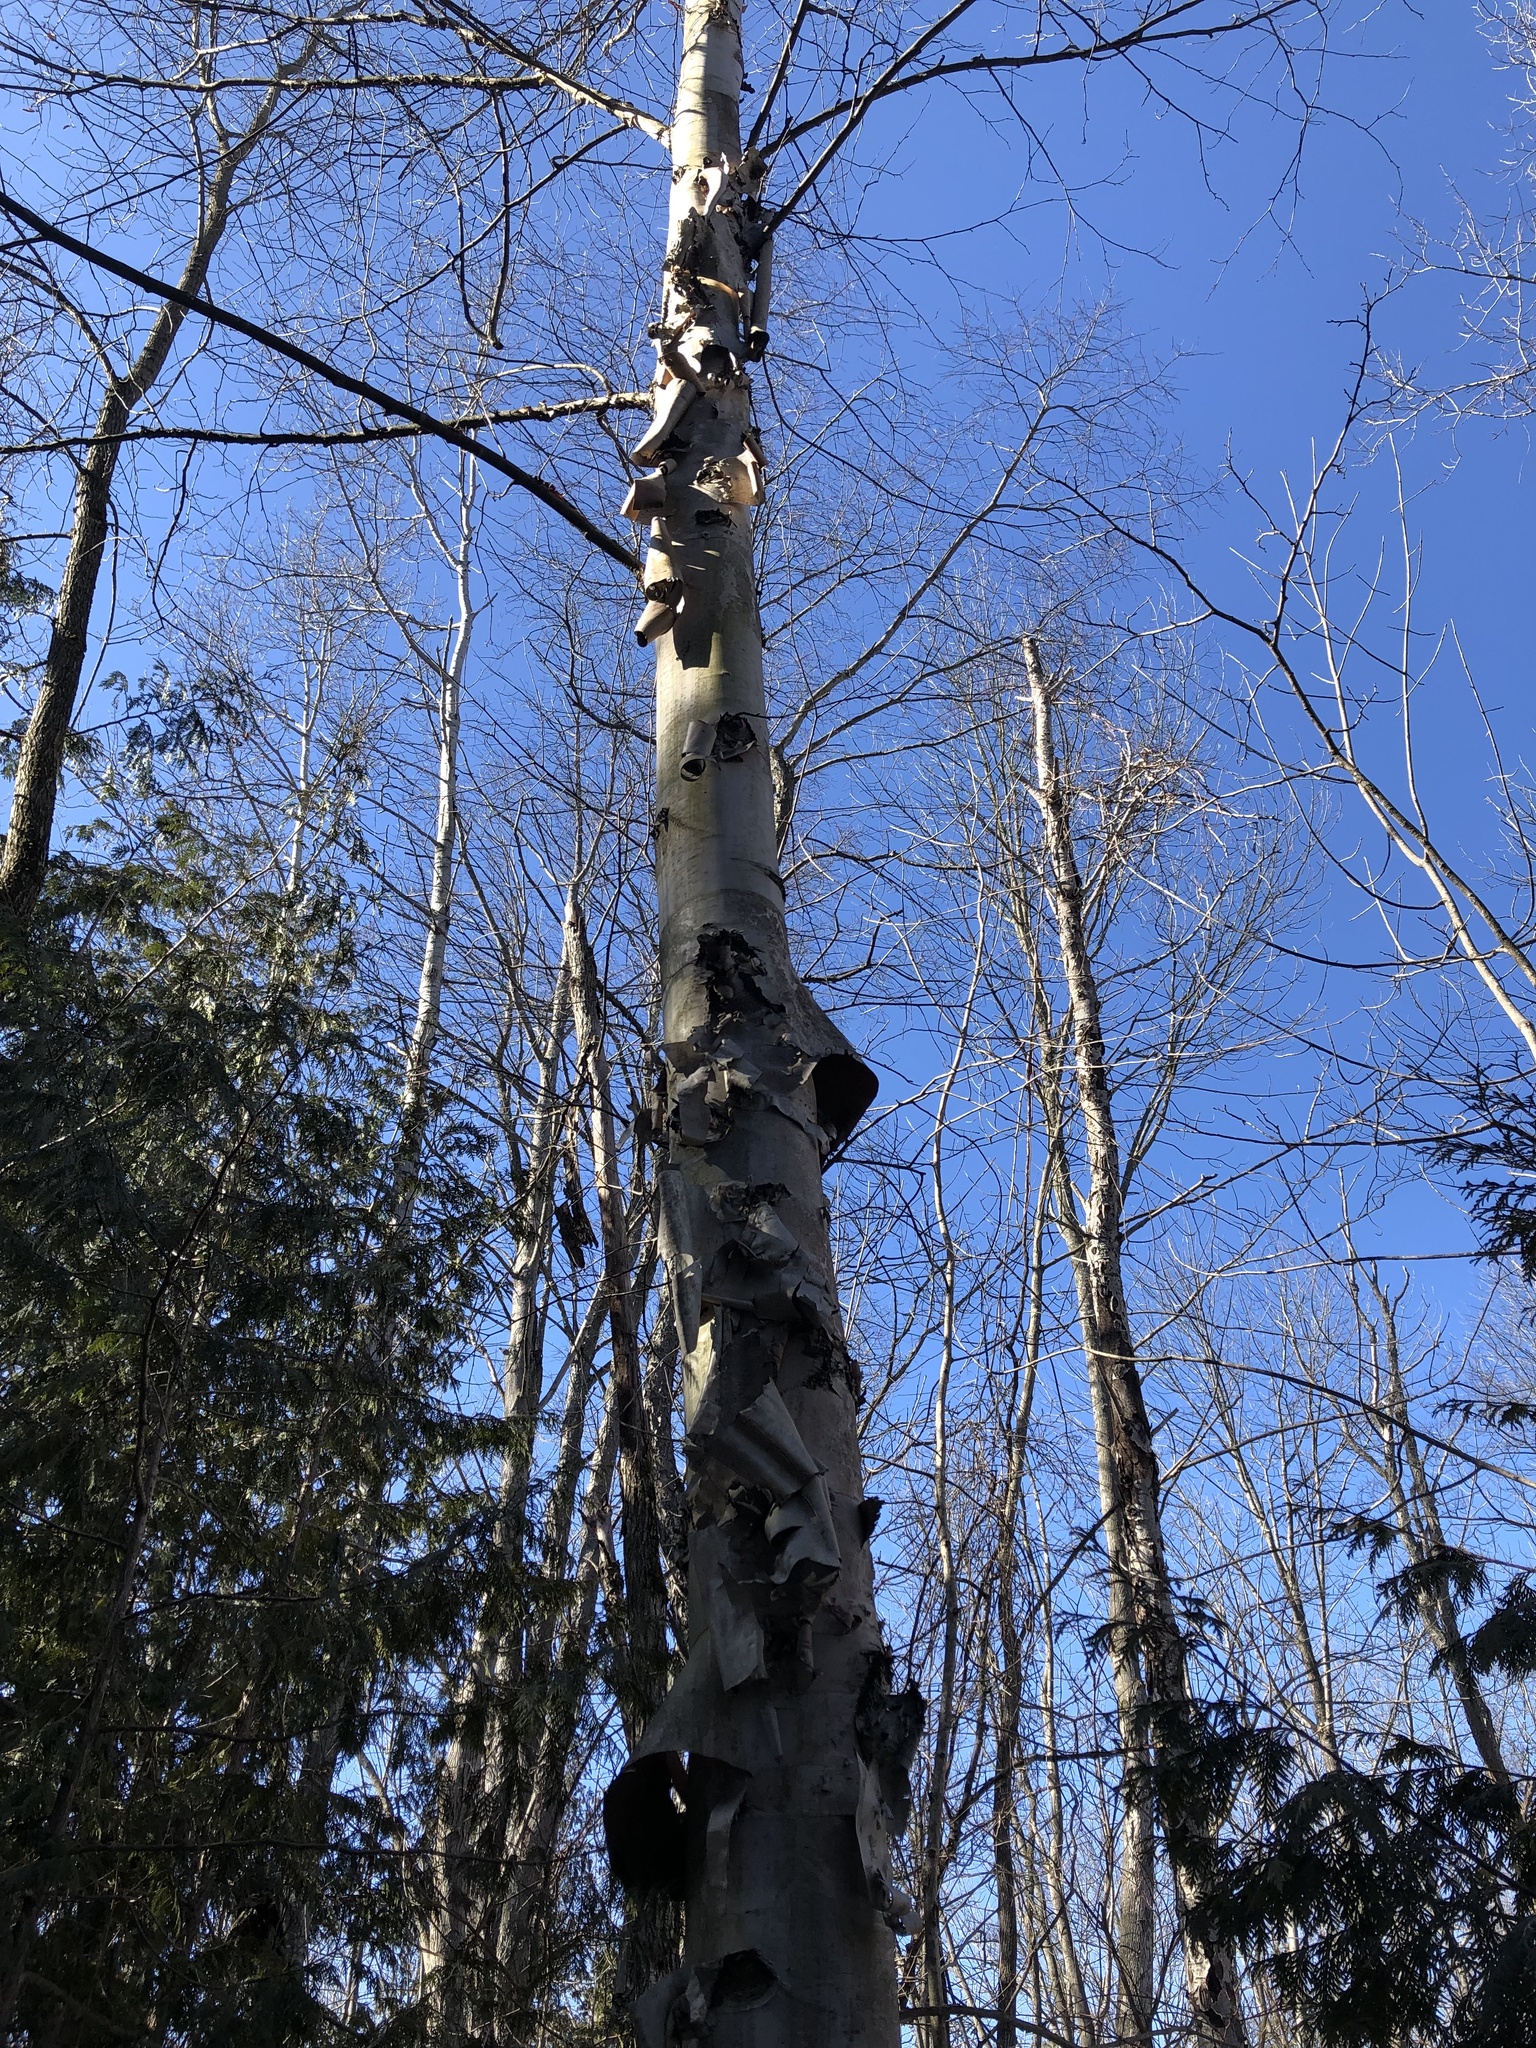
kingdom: Plantae
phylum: Tracheophyta
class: Magnoliopsida
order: Fagales
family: Betulaceae
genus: Betula
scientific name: Betula papyrifera
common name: Paper birch
